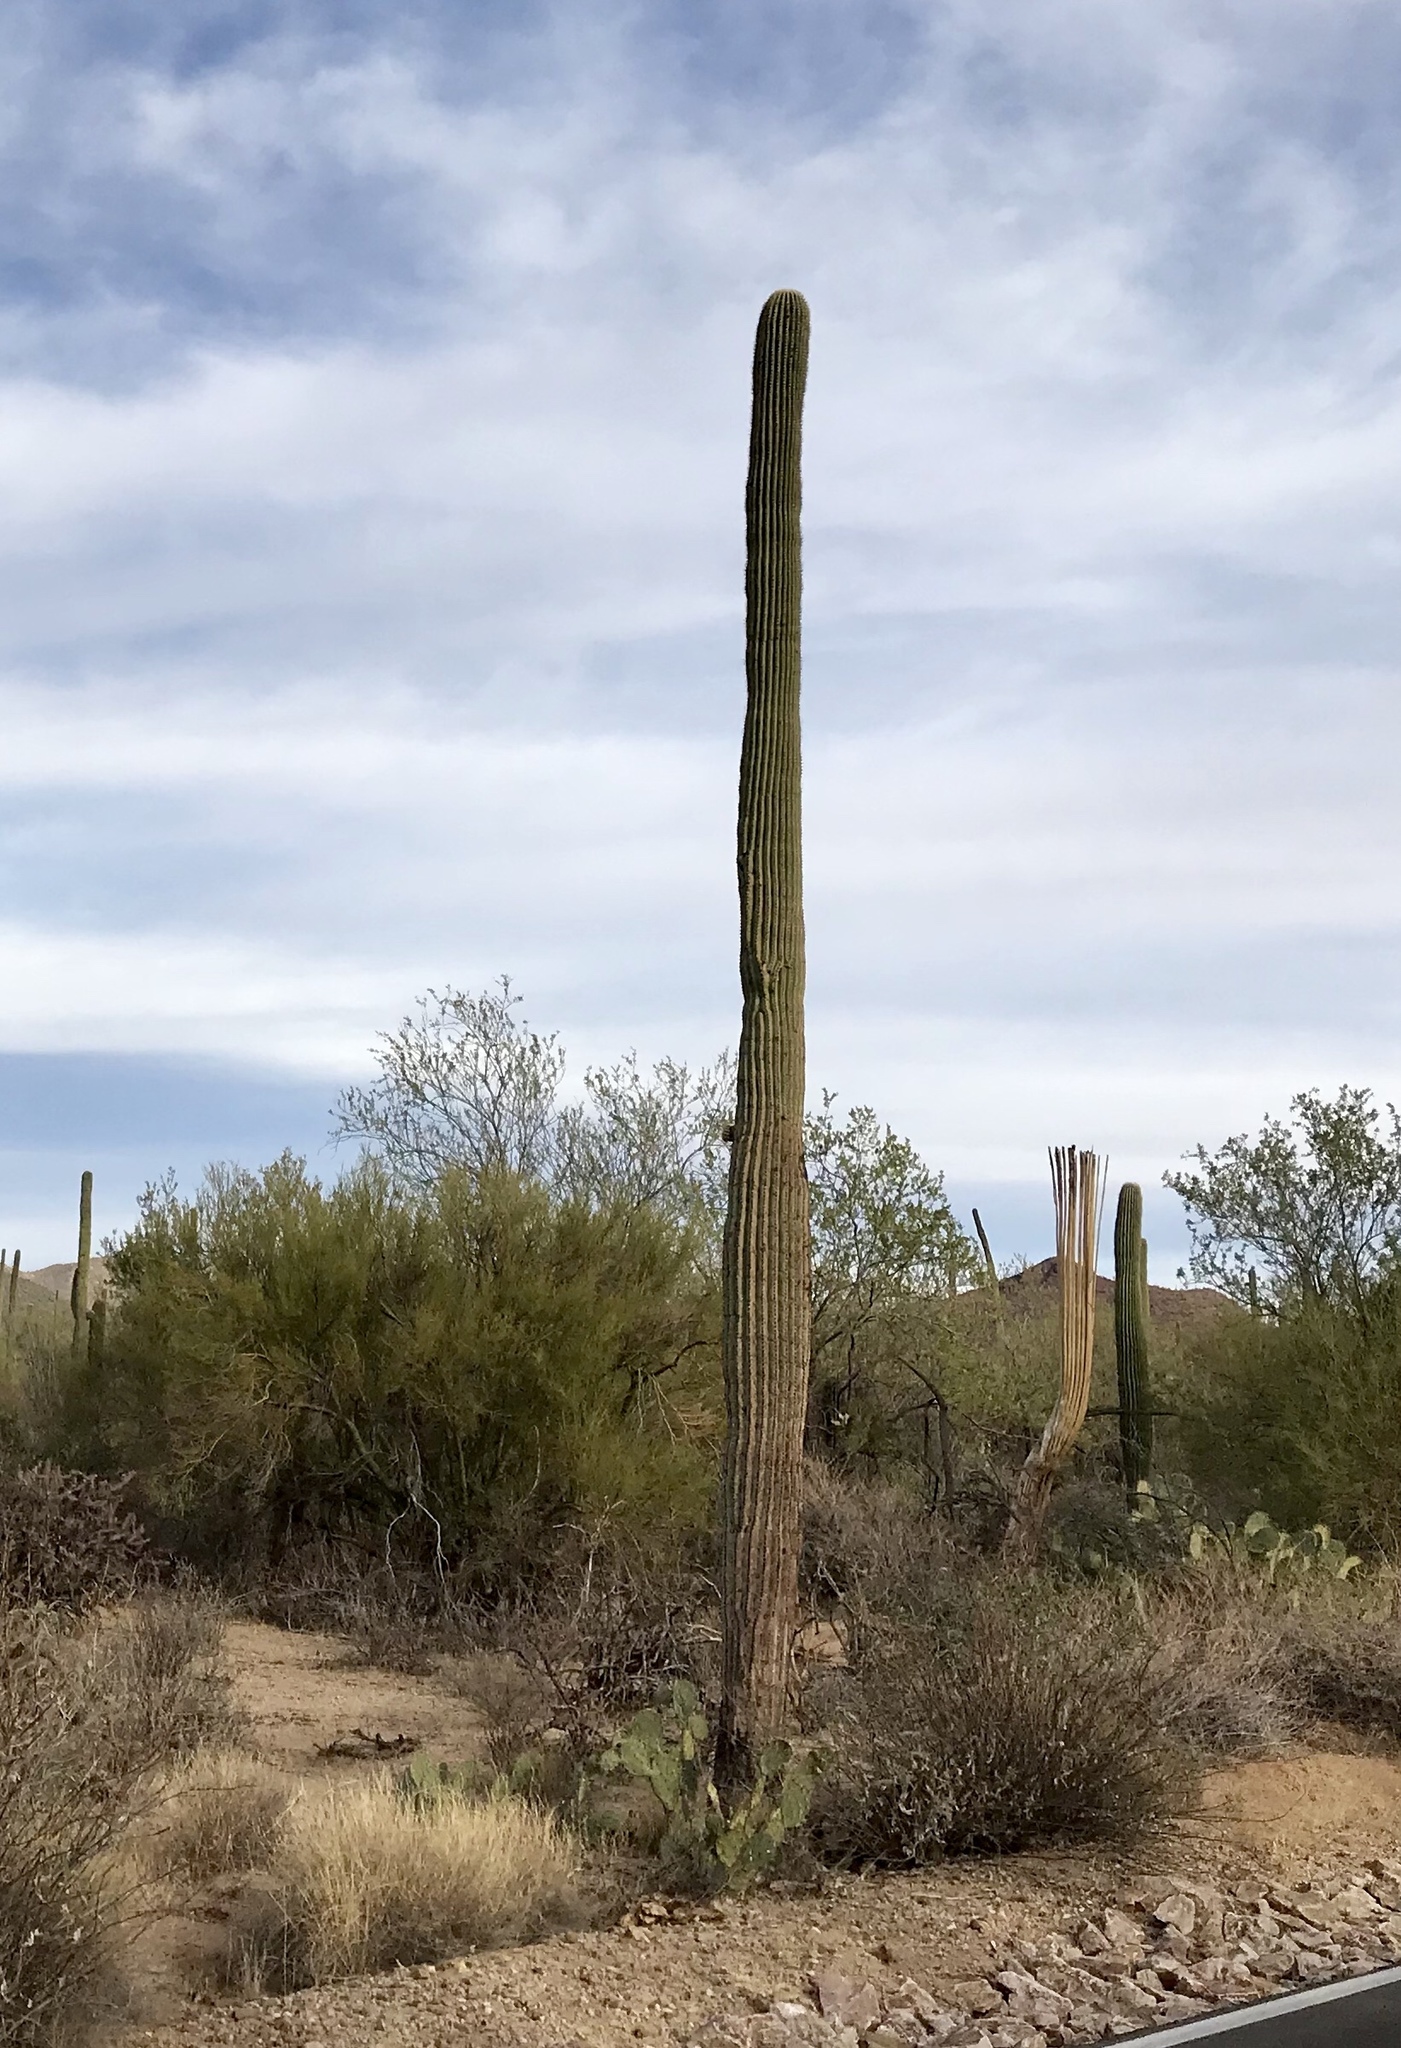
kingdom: Plantae
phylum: Tracheophyta
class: Magnoliopsida
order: Caryophyllales
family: Cactaceae
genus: Carnegiea
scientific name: Carnegiea gigantea
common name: Saguaro
